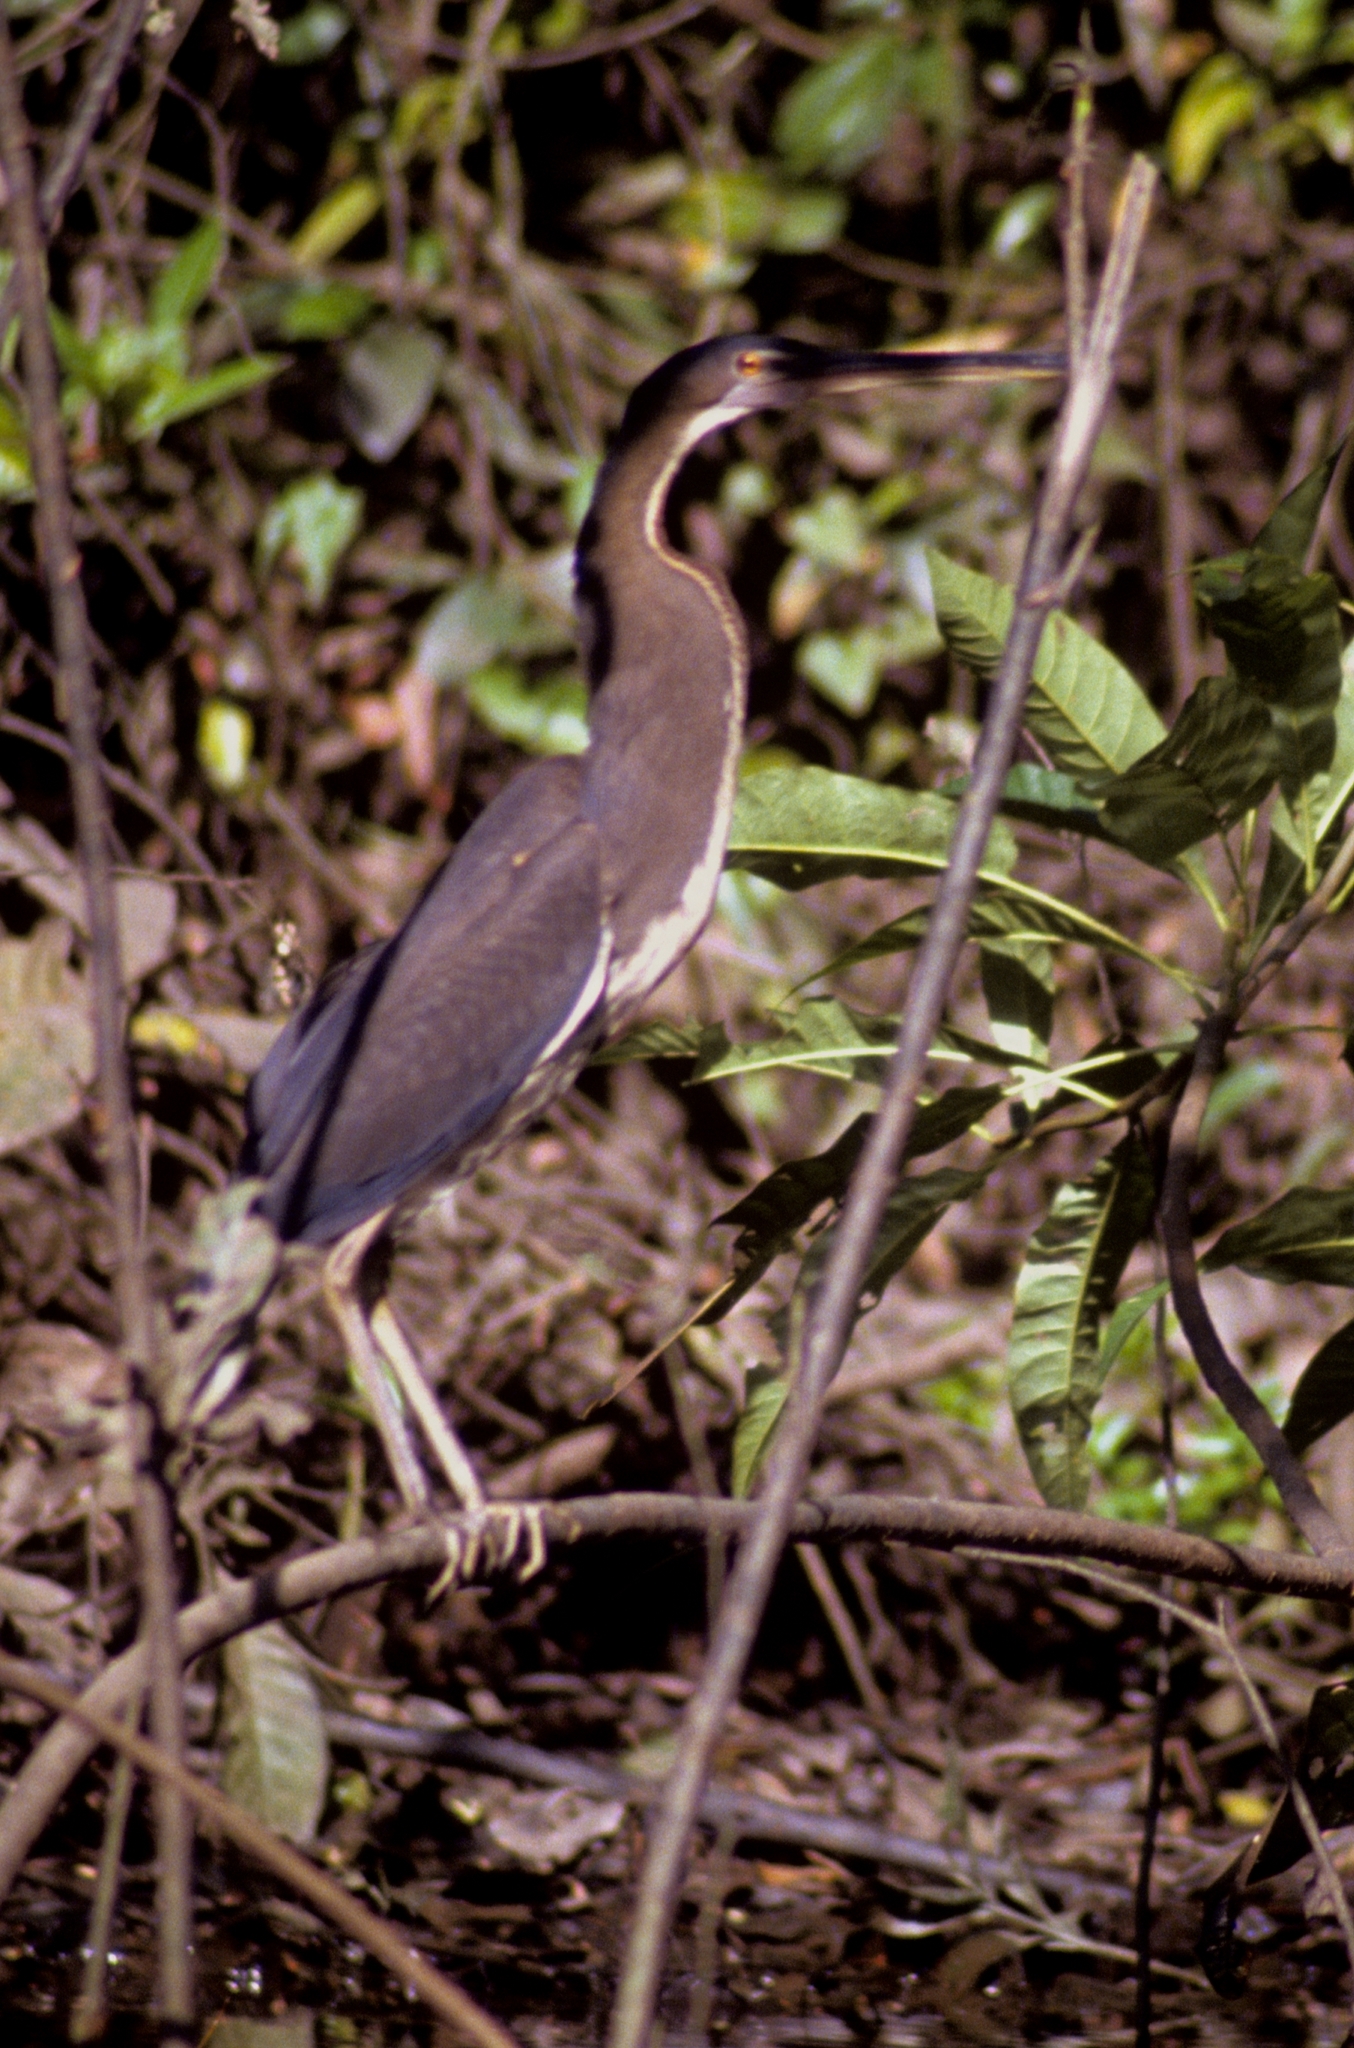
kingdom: Animalia
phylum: Chordata
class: Aves
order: Pelecaniformes
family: Ardeidae
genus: Agamia
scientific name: Agamia agami
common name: Agami heron
